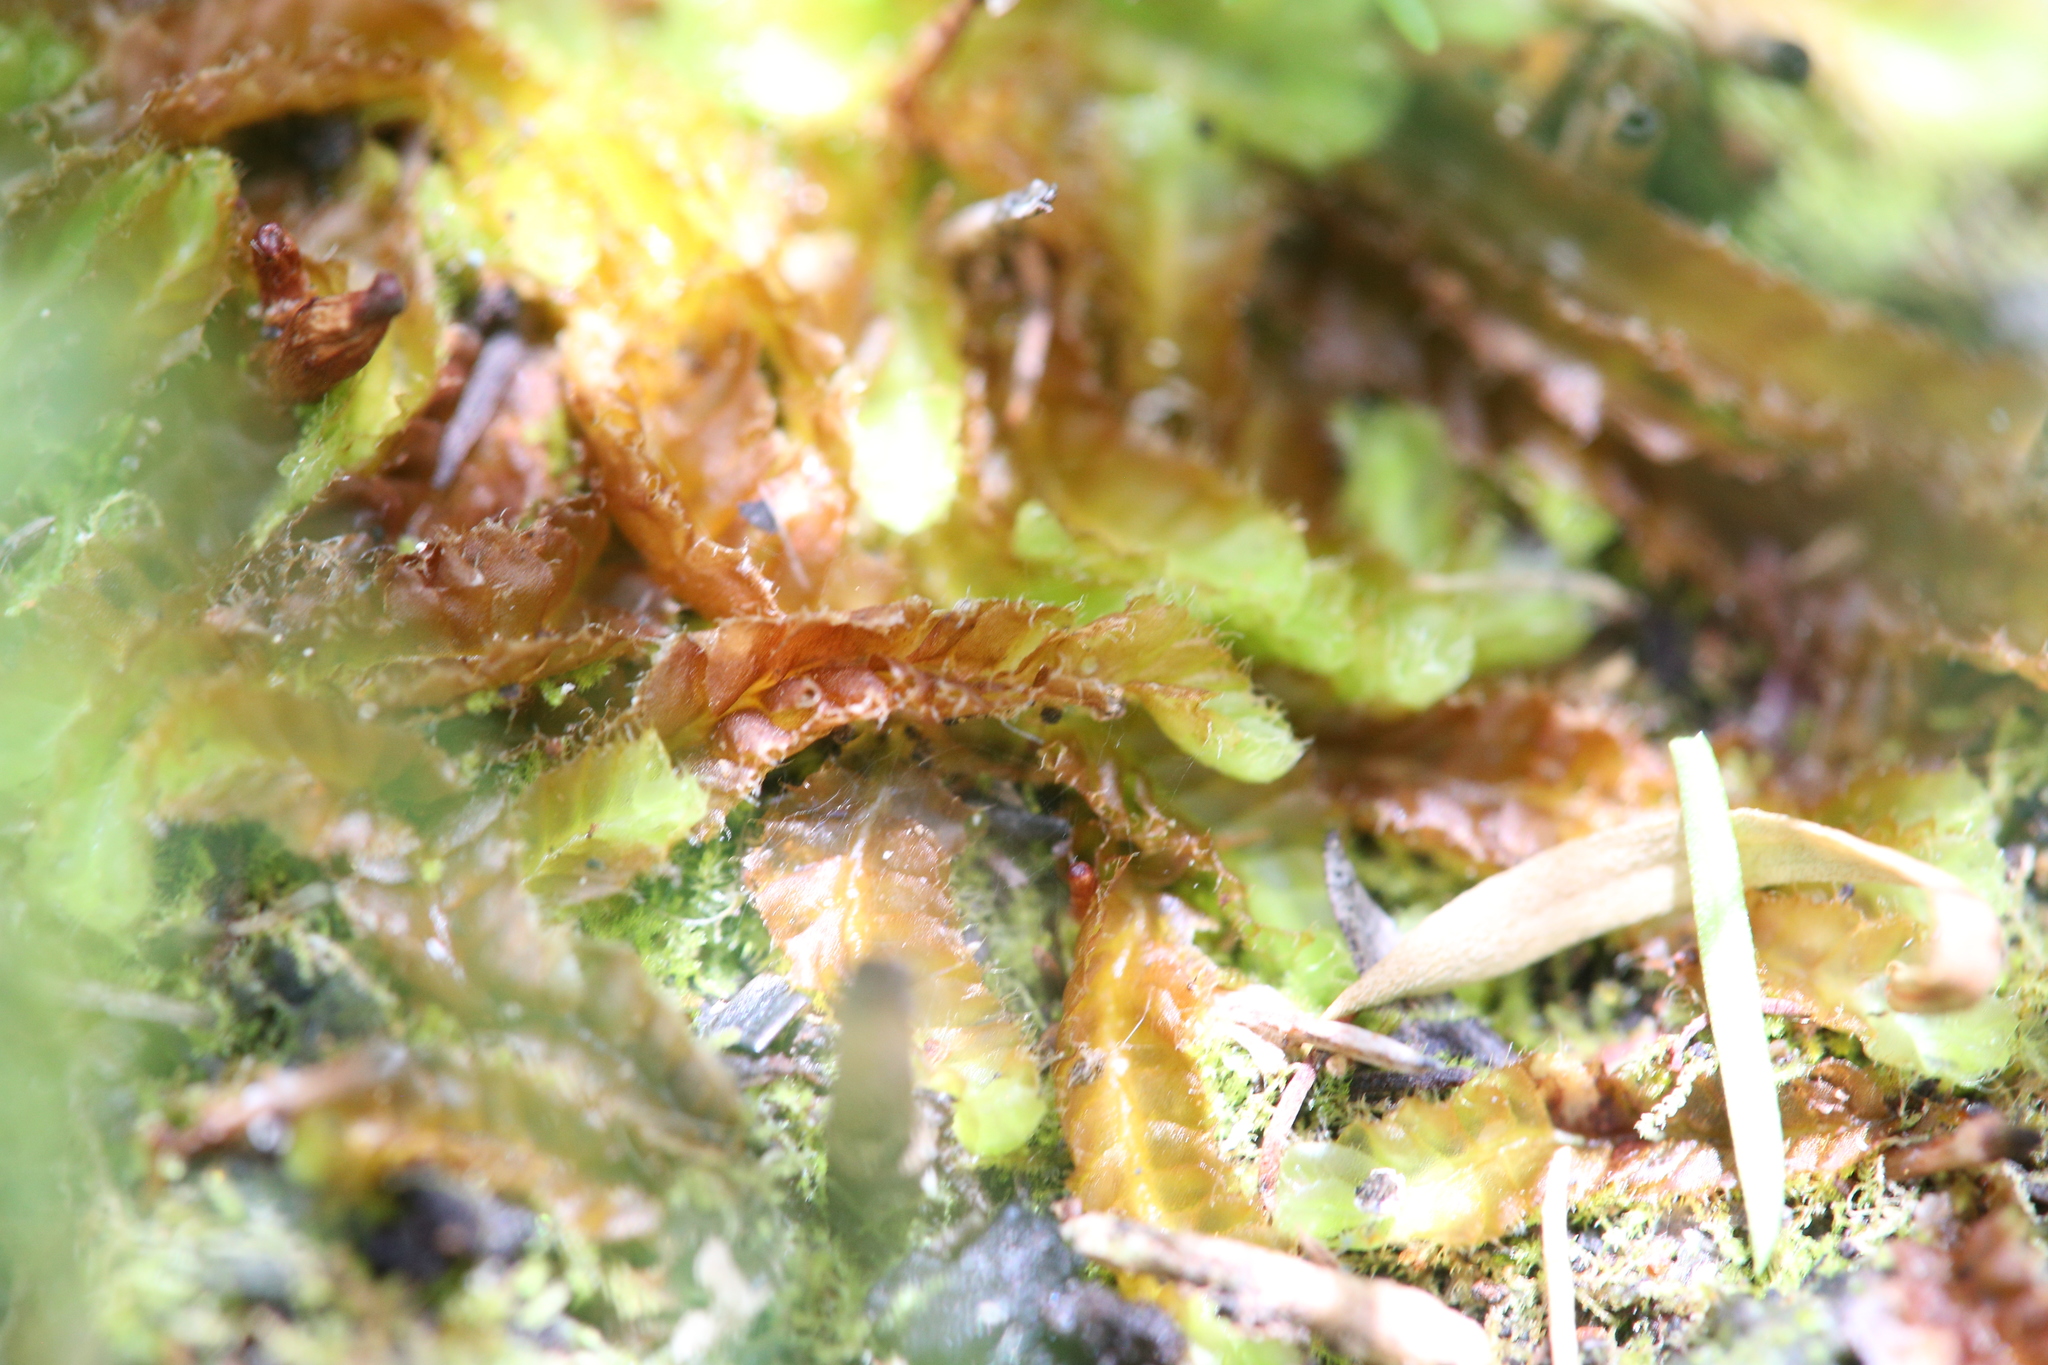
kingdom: Plantae
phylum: Marchantiophyta
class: Jungermanniopsida
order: Jungermanniales
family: Acrobolbaceae
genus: Goebelobryum
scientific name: Goebelobryum unguiculatum
